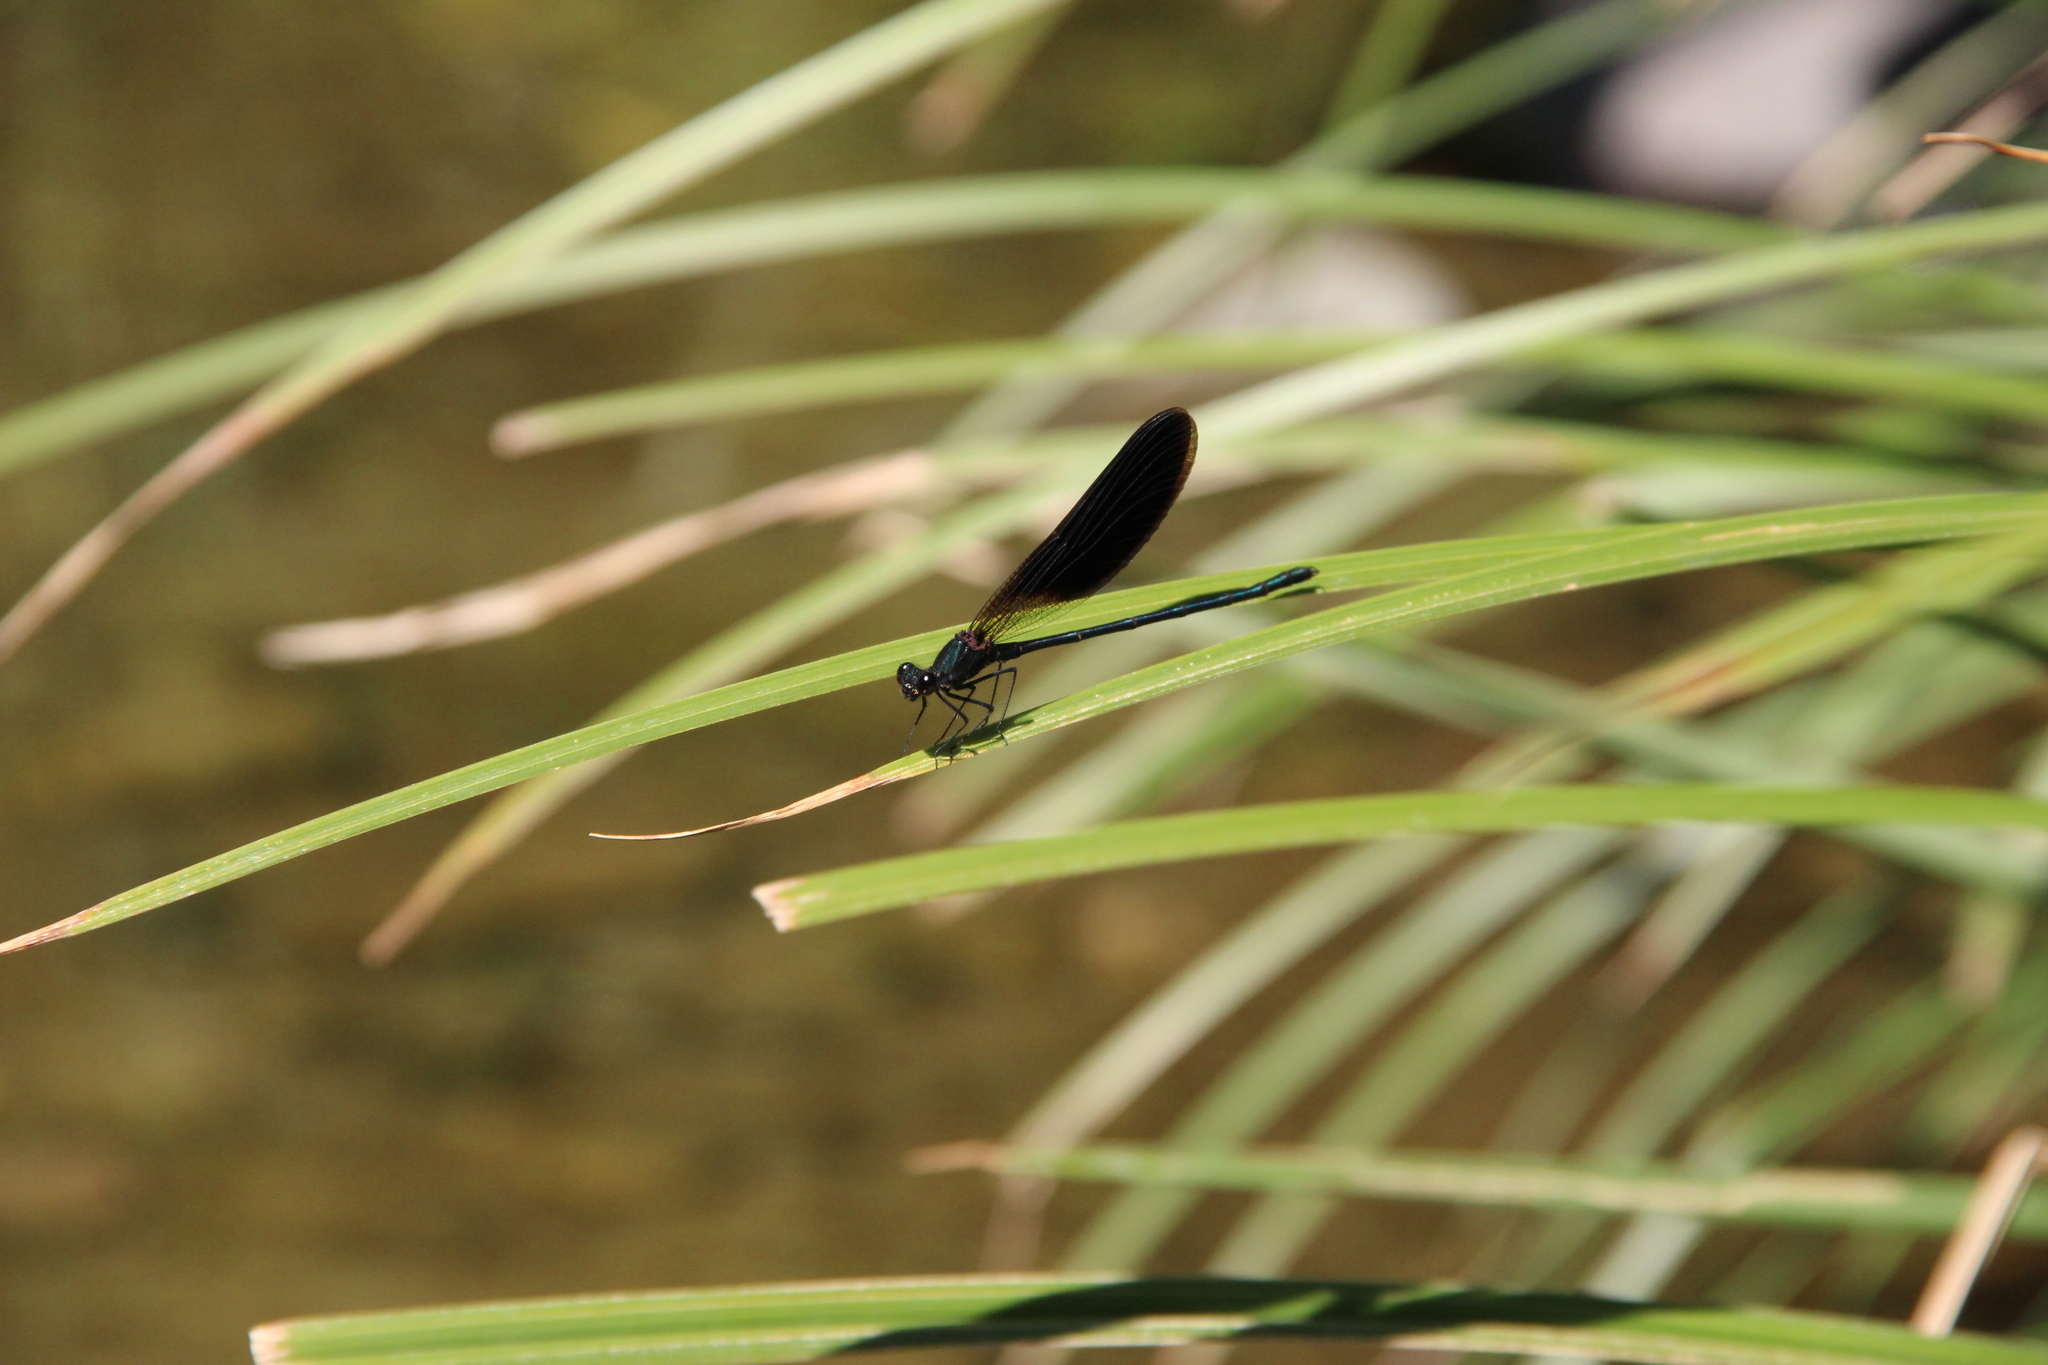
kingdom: Animalia
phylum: Arthropoda
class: Insecta
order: Odonata
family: Calopterygidae
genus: Calopteryx
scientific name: Calopteryx haemorrhoidalis
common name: Copper demoiselle
